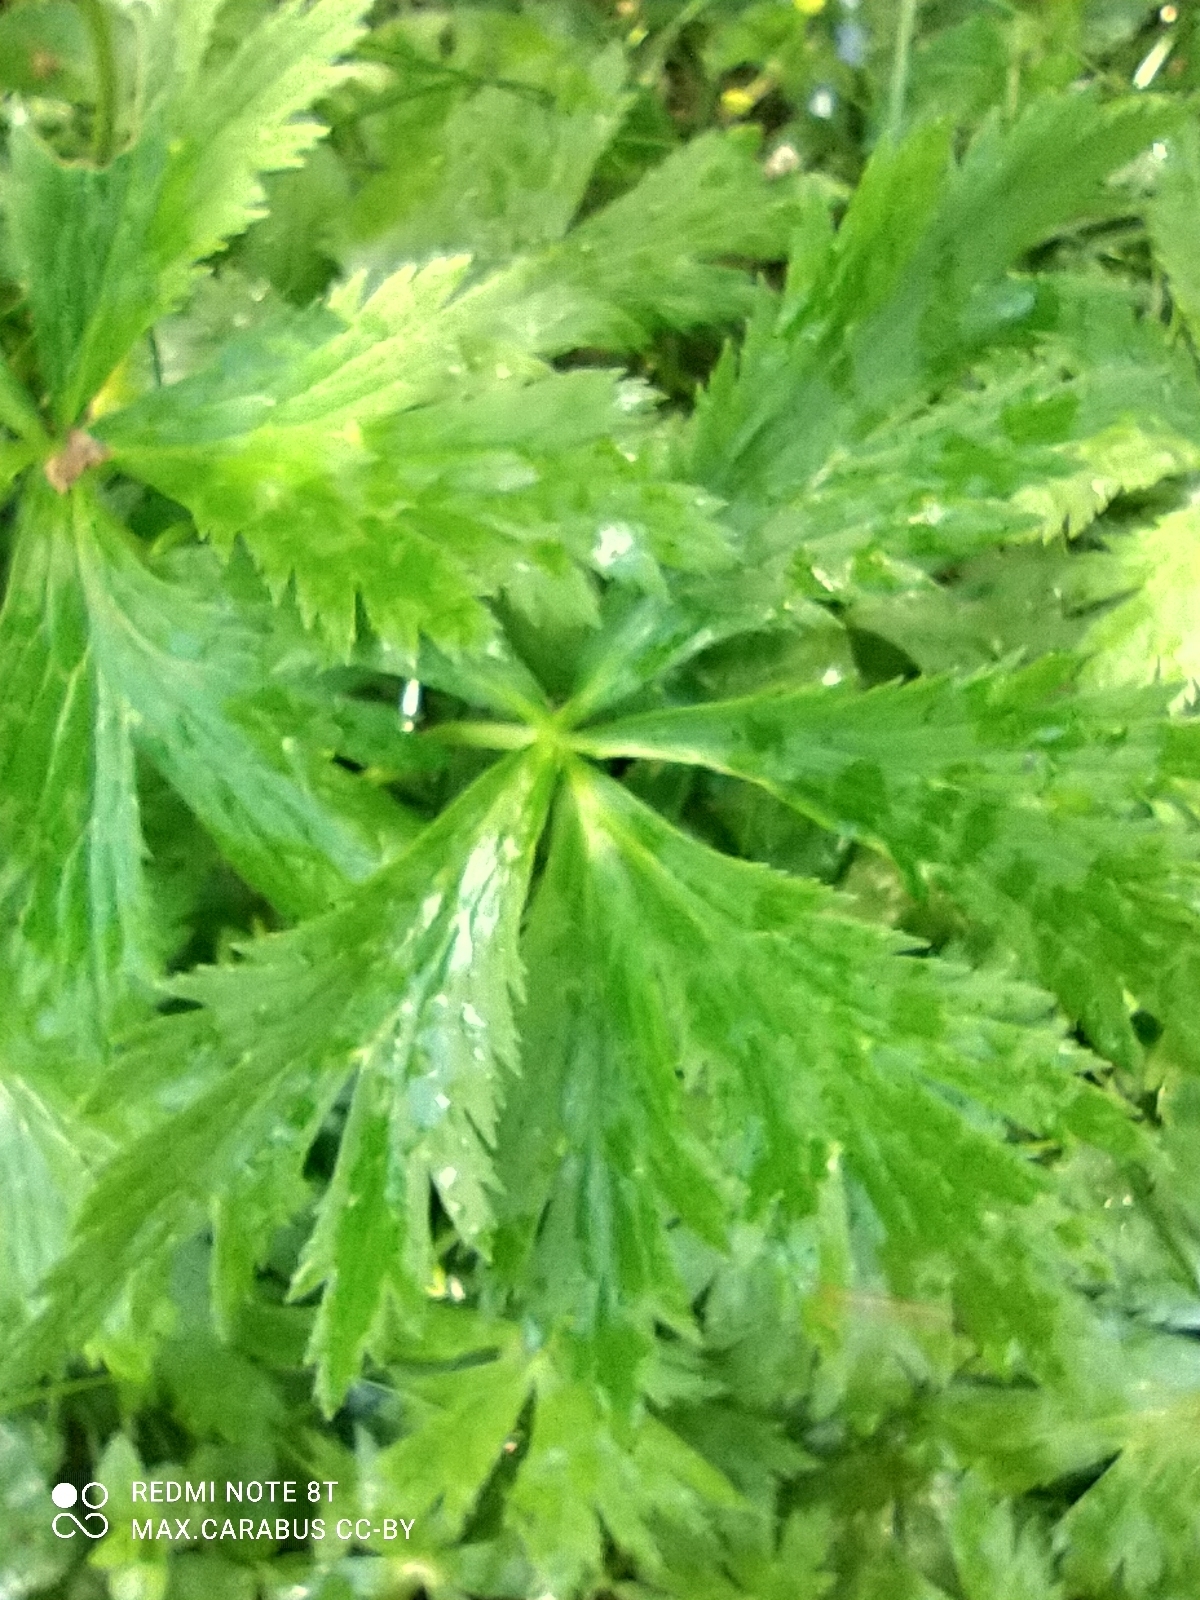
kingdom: Plantae
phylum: Tracheophyta
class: Magnoliopsida
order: Ranunculales
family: Ranunculaceae
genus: Trollius
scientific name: Trollius europaeus
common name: European globeflower
